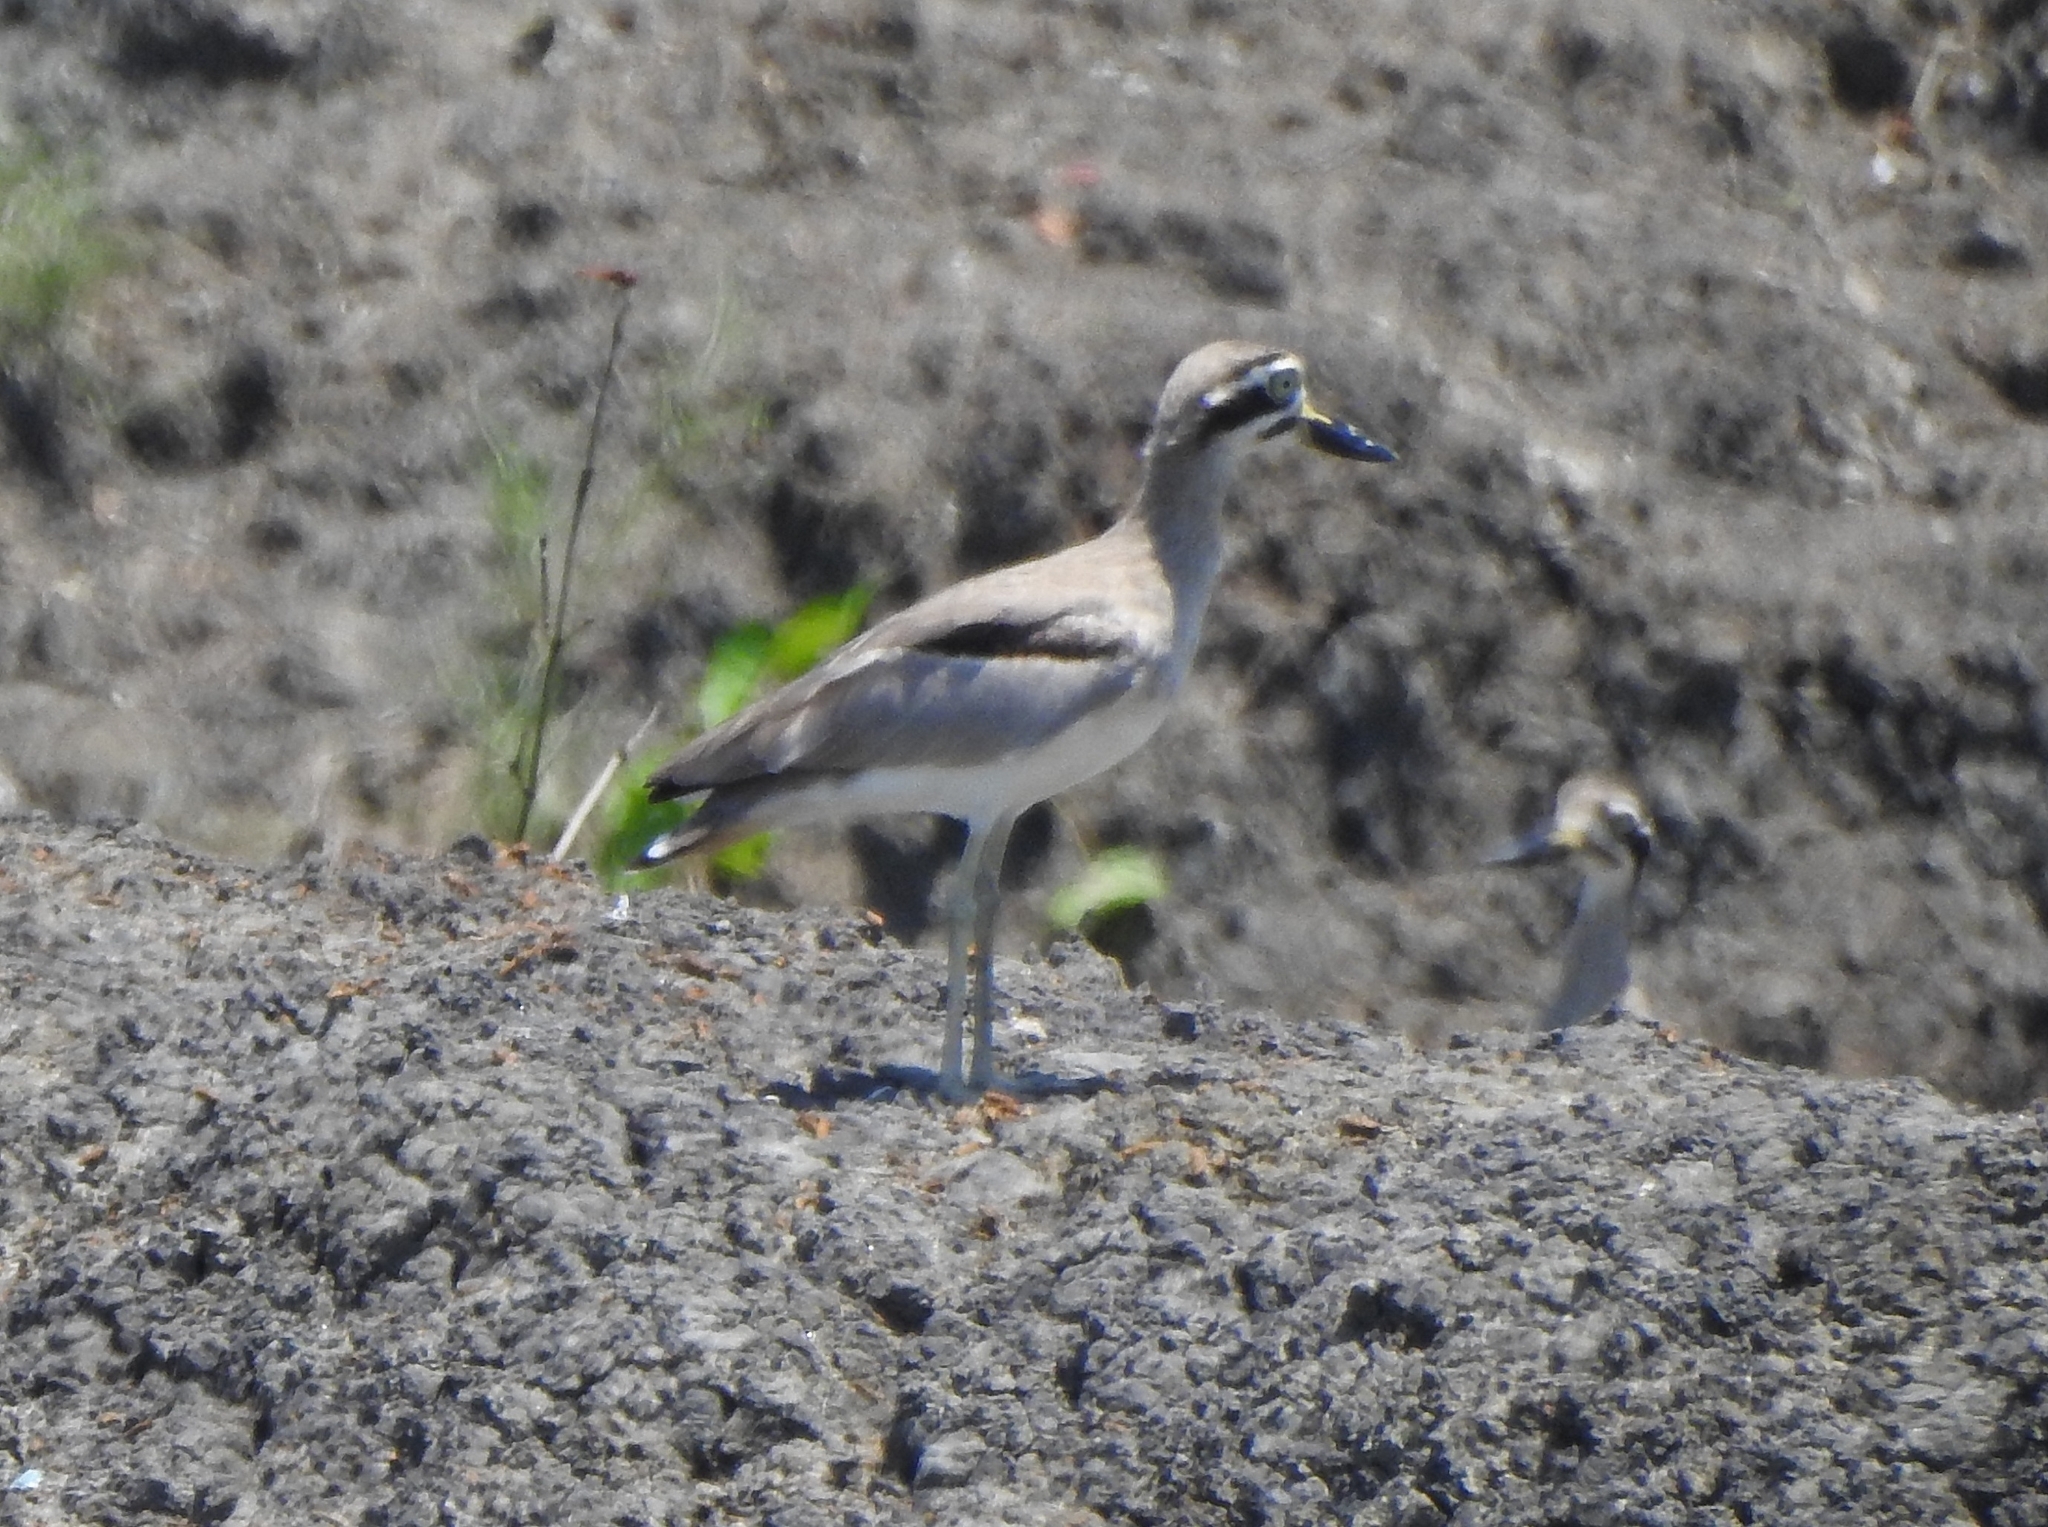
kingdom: Animalia
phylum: Chordata
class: Aves
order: Charadriiformes
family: Burhinidae
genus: Esacus
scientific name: Esacus recurvirostris
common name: Great stone-curlew
